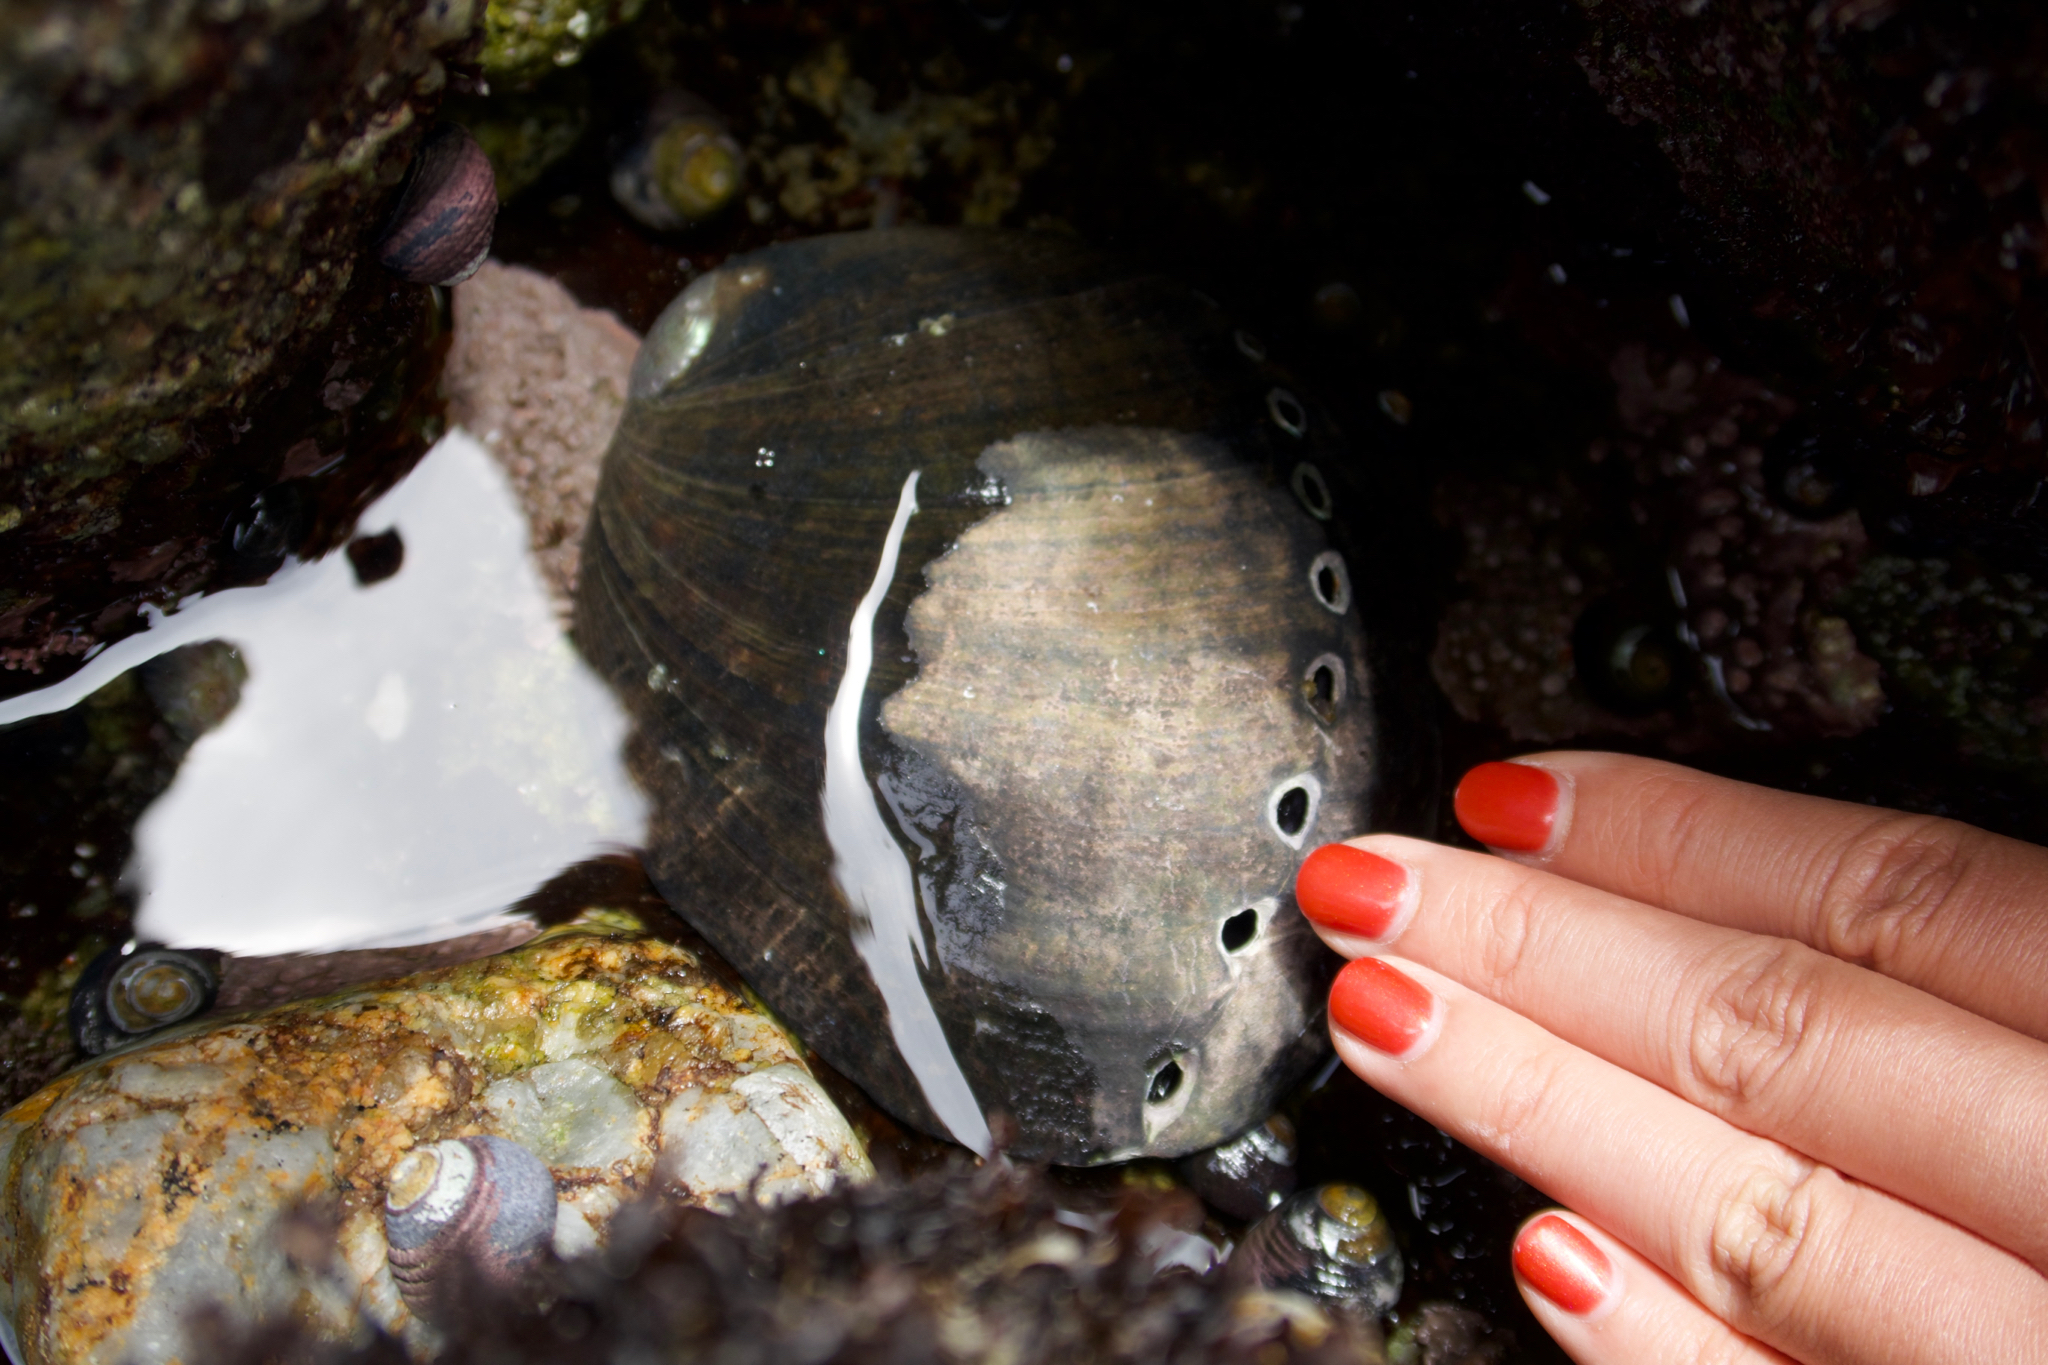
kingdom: Animalia
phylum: Mollusca
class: Gastropoda
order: Lepetellida
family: Haliotidae
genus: Haliotis
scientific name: Haliotis cracherodii
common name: Black abalone
